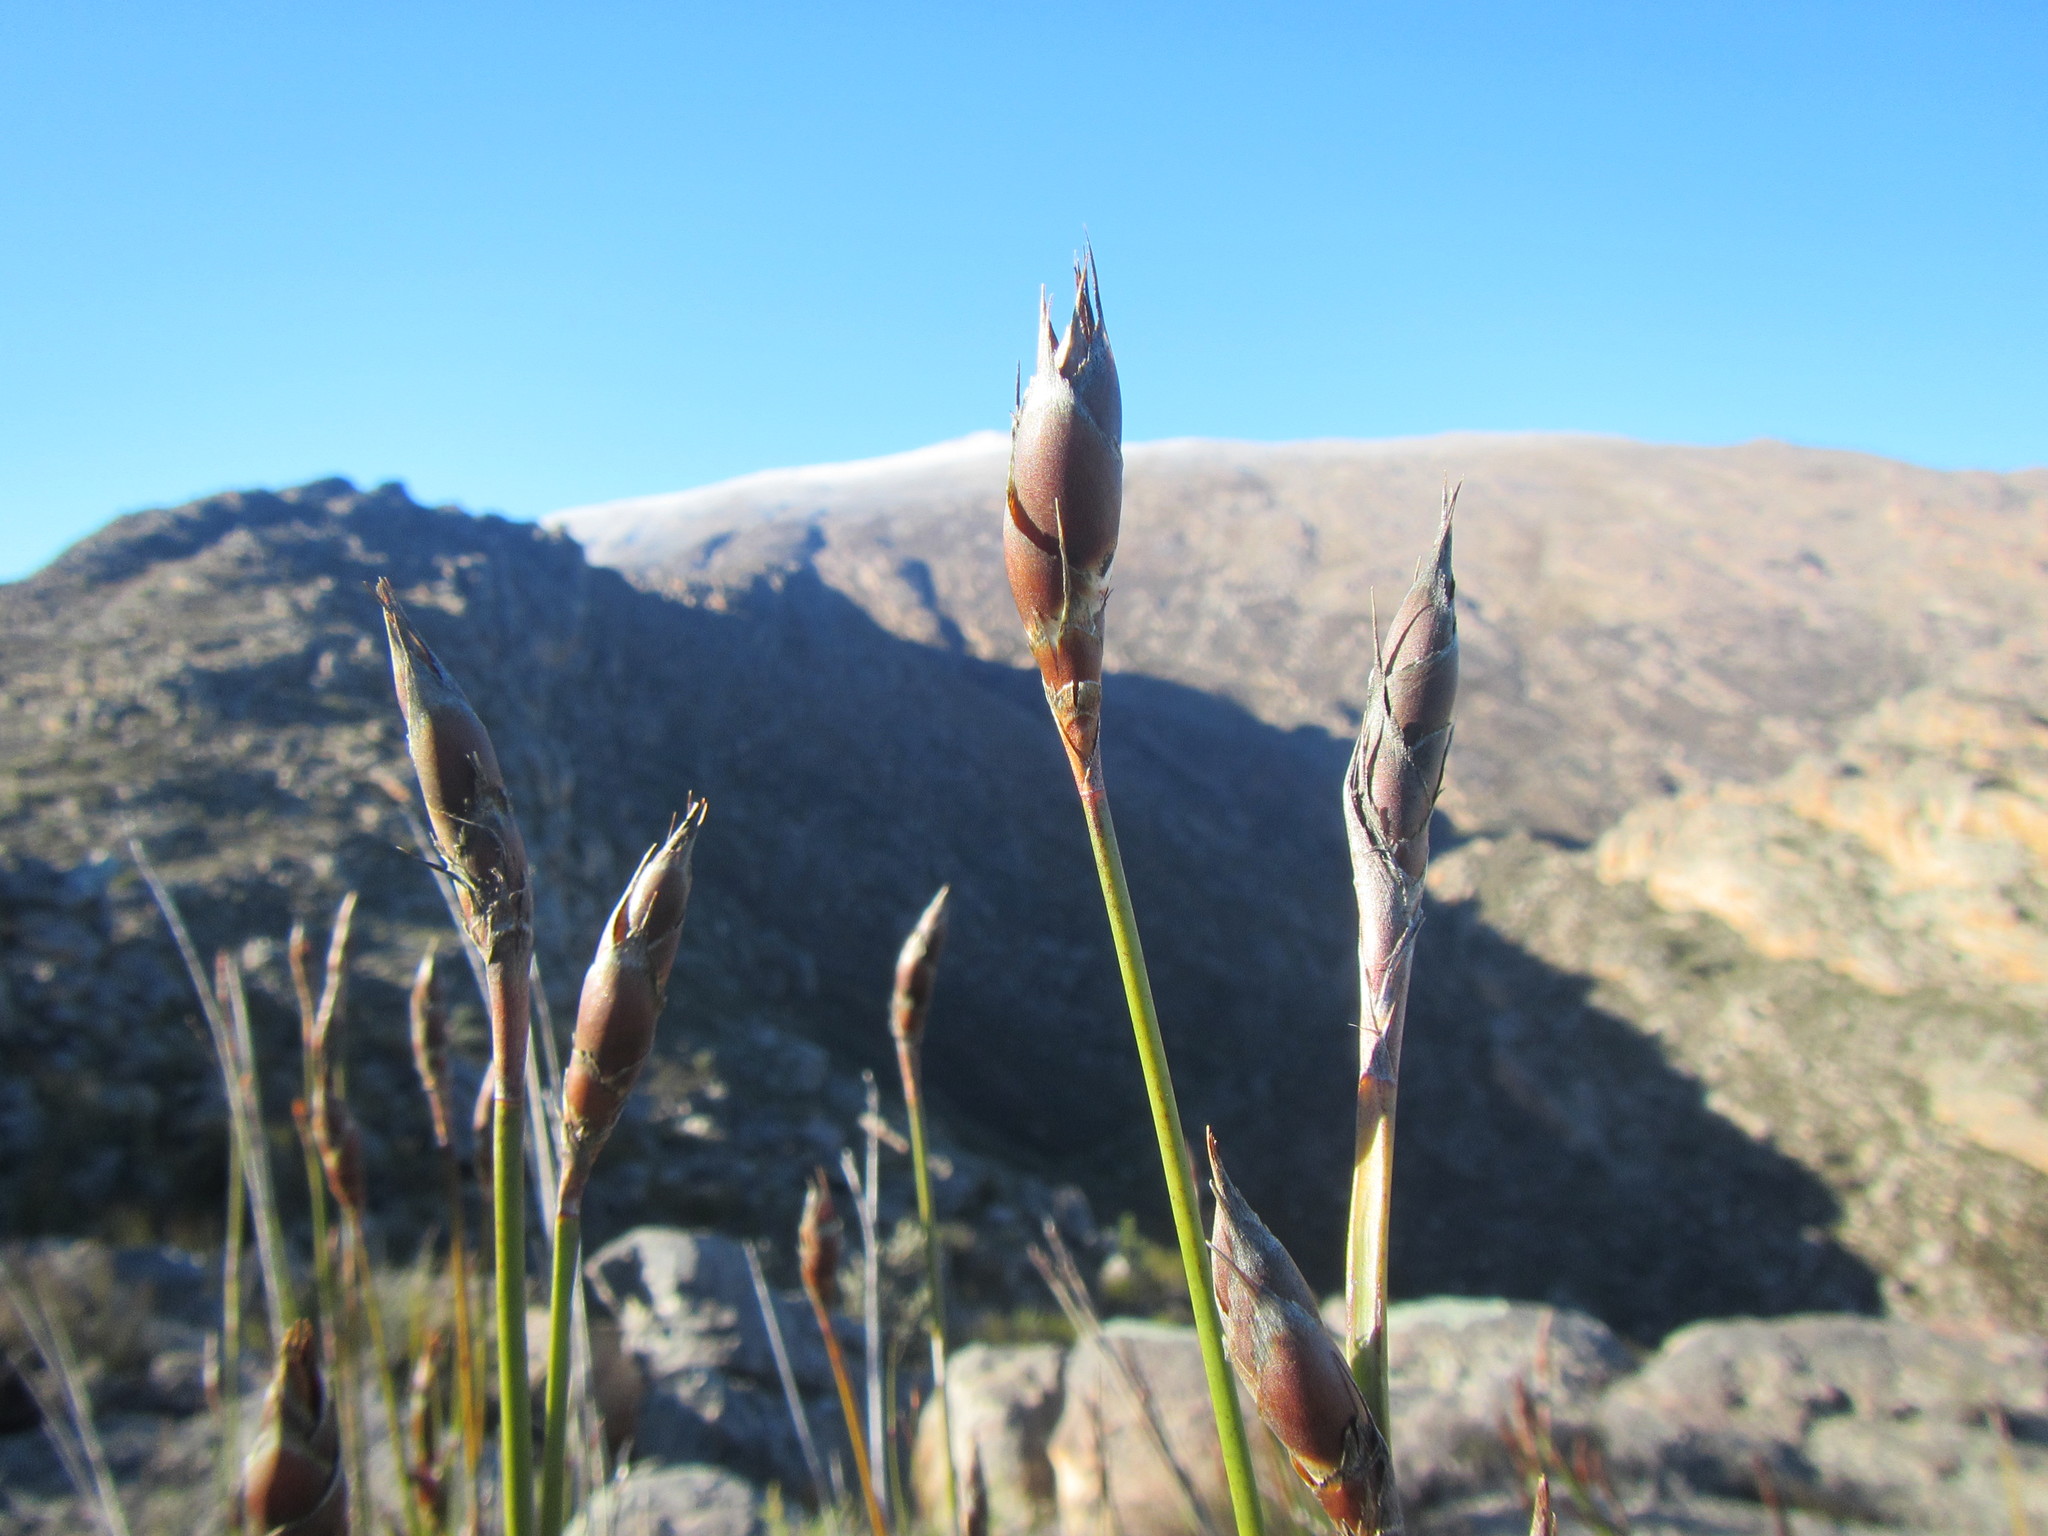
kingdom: Plantae
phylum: Tracheophyta
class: Liliopsida
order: Poales
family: Restionaceae
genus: Cannomois
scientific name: Cannomois robusta
